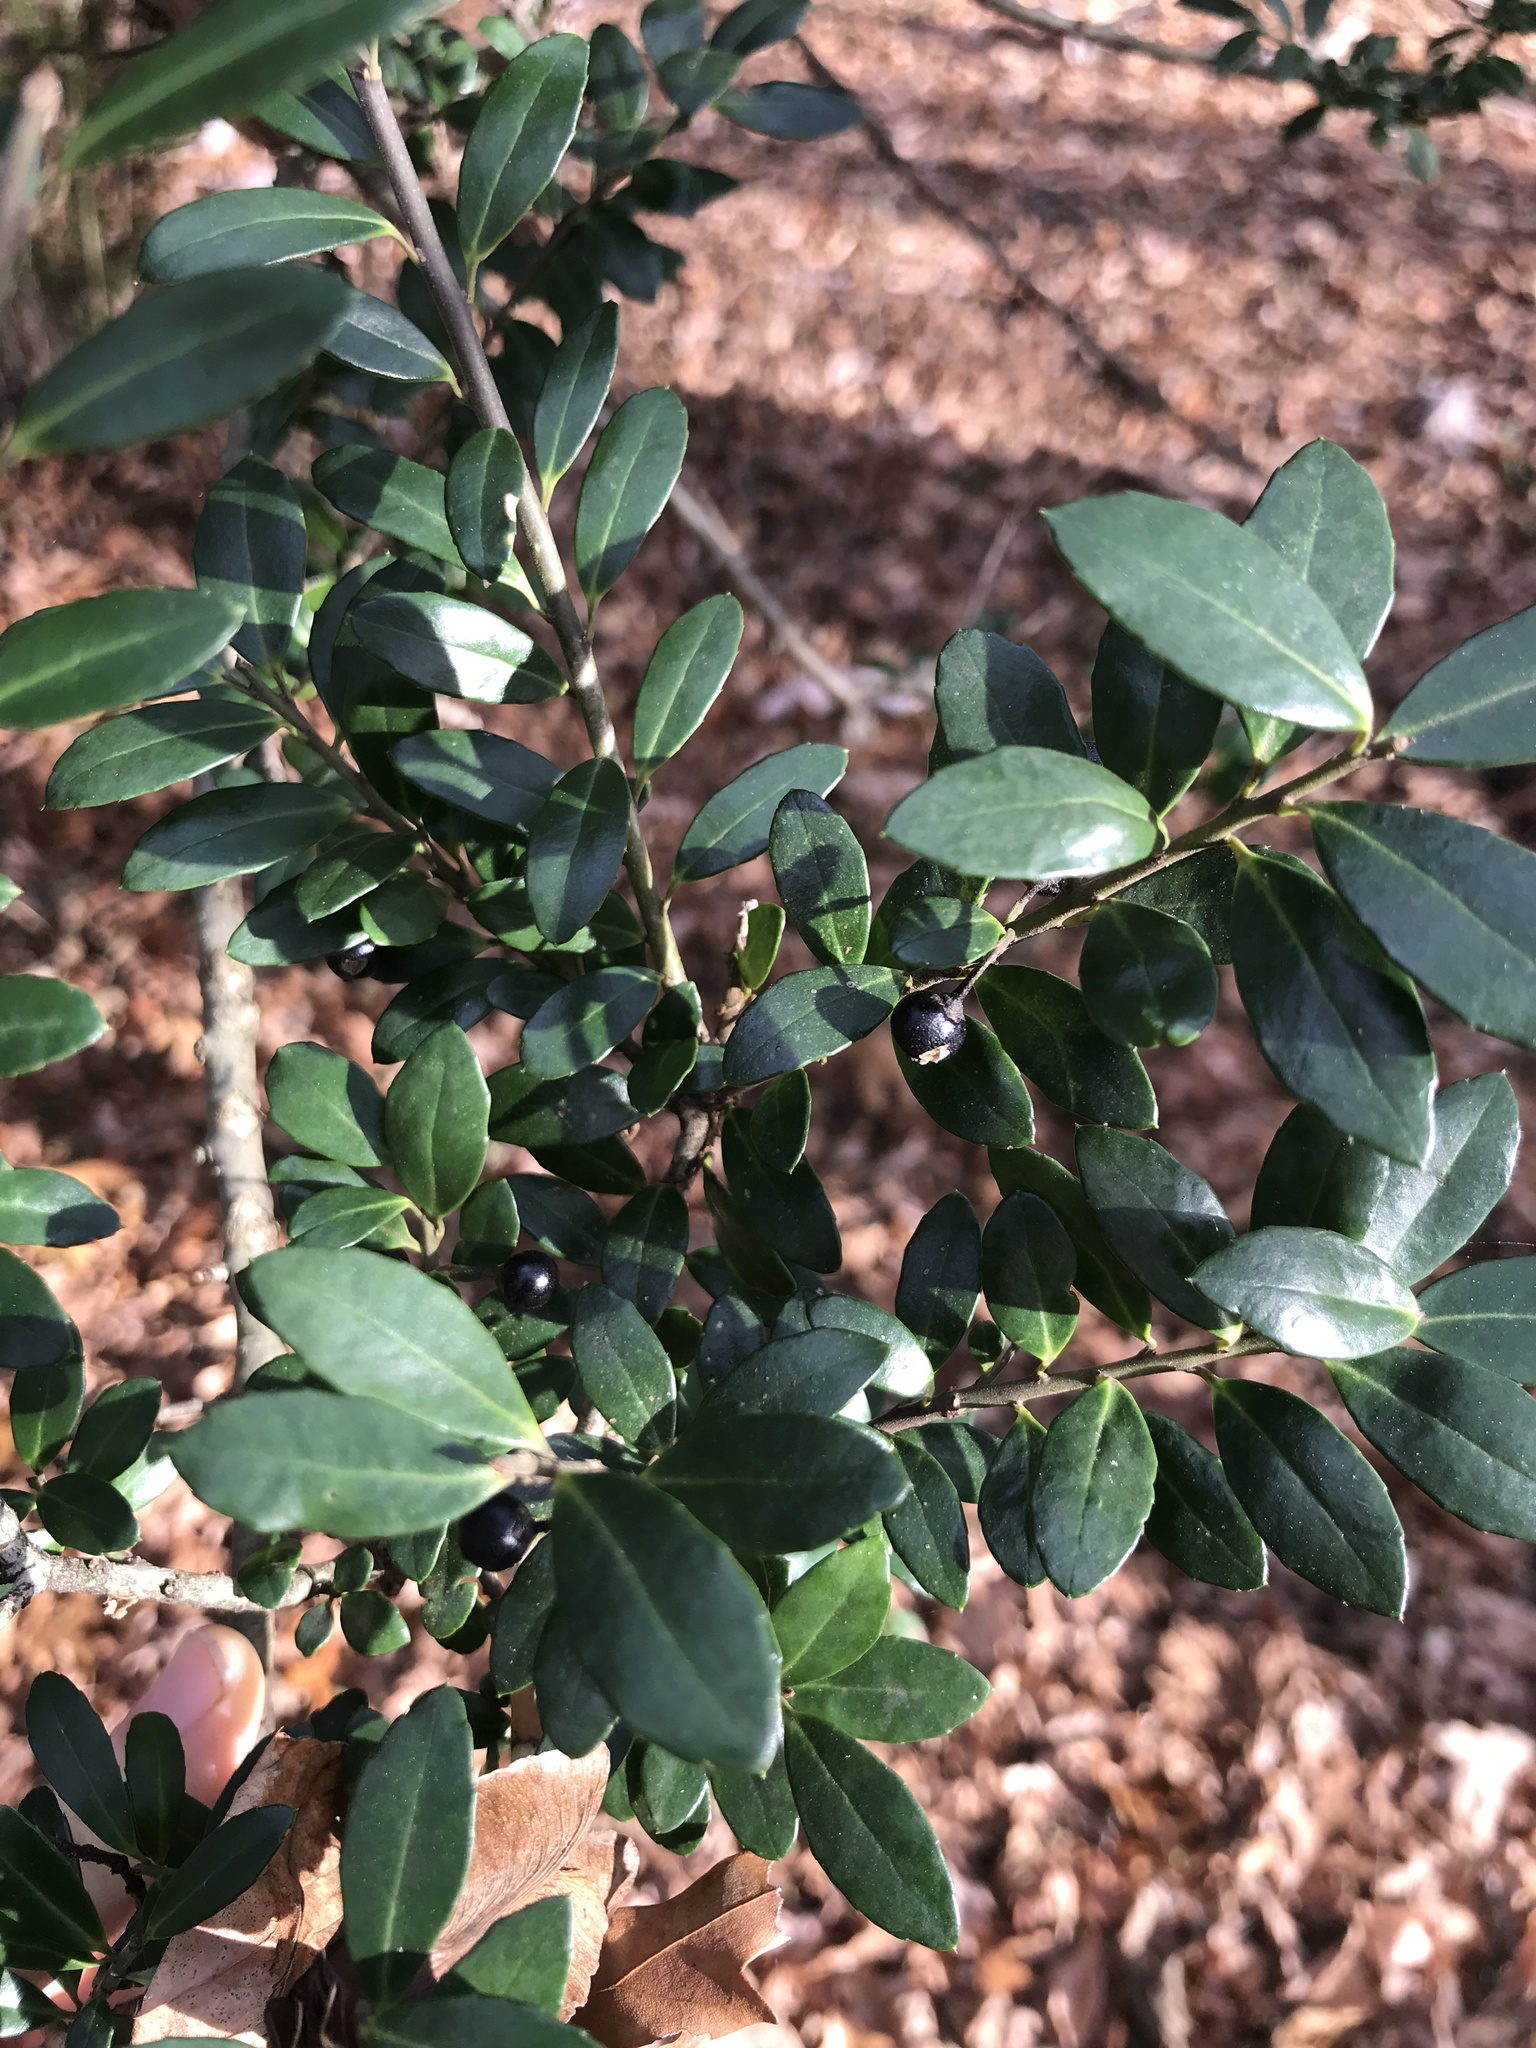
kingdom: Plantae
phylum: Tracheophyta
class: Magnoliopsida
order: Aquifoliales
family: Aquifoliaceae
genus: Ilex
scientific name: Ilex crenata
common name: Japanese holly
